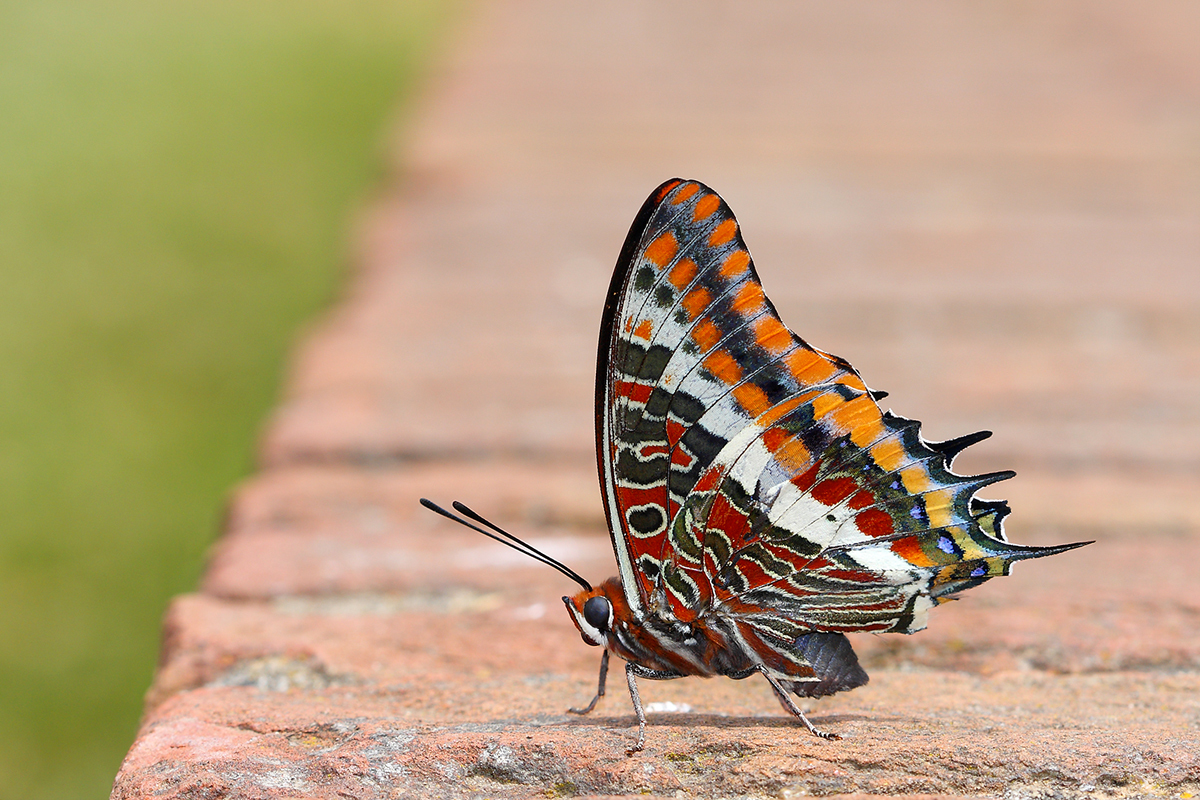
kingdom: Animalia
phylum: Arthropoda
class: Insecta
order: Lepidoptera
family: Nymphalidae
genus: Charaxes
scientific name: Charaxes jasius
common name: Two tailed pasha
